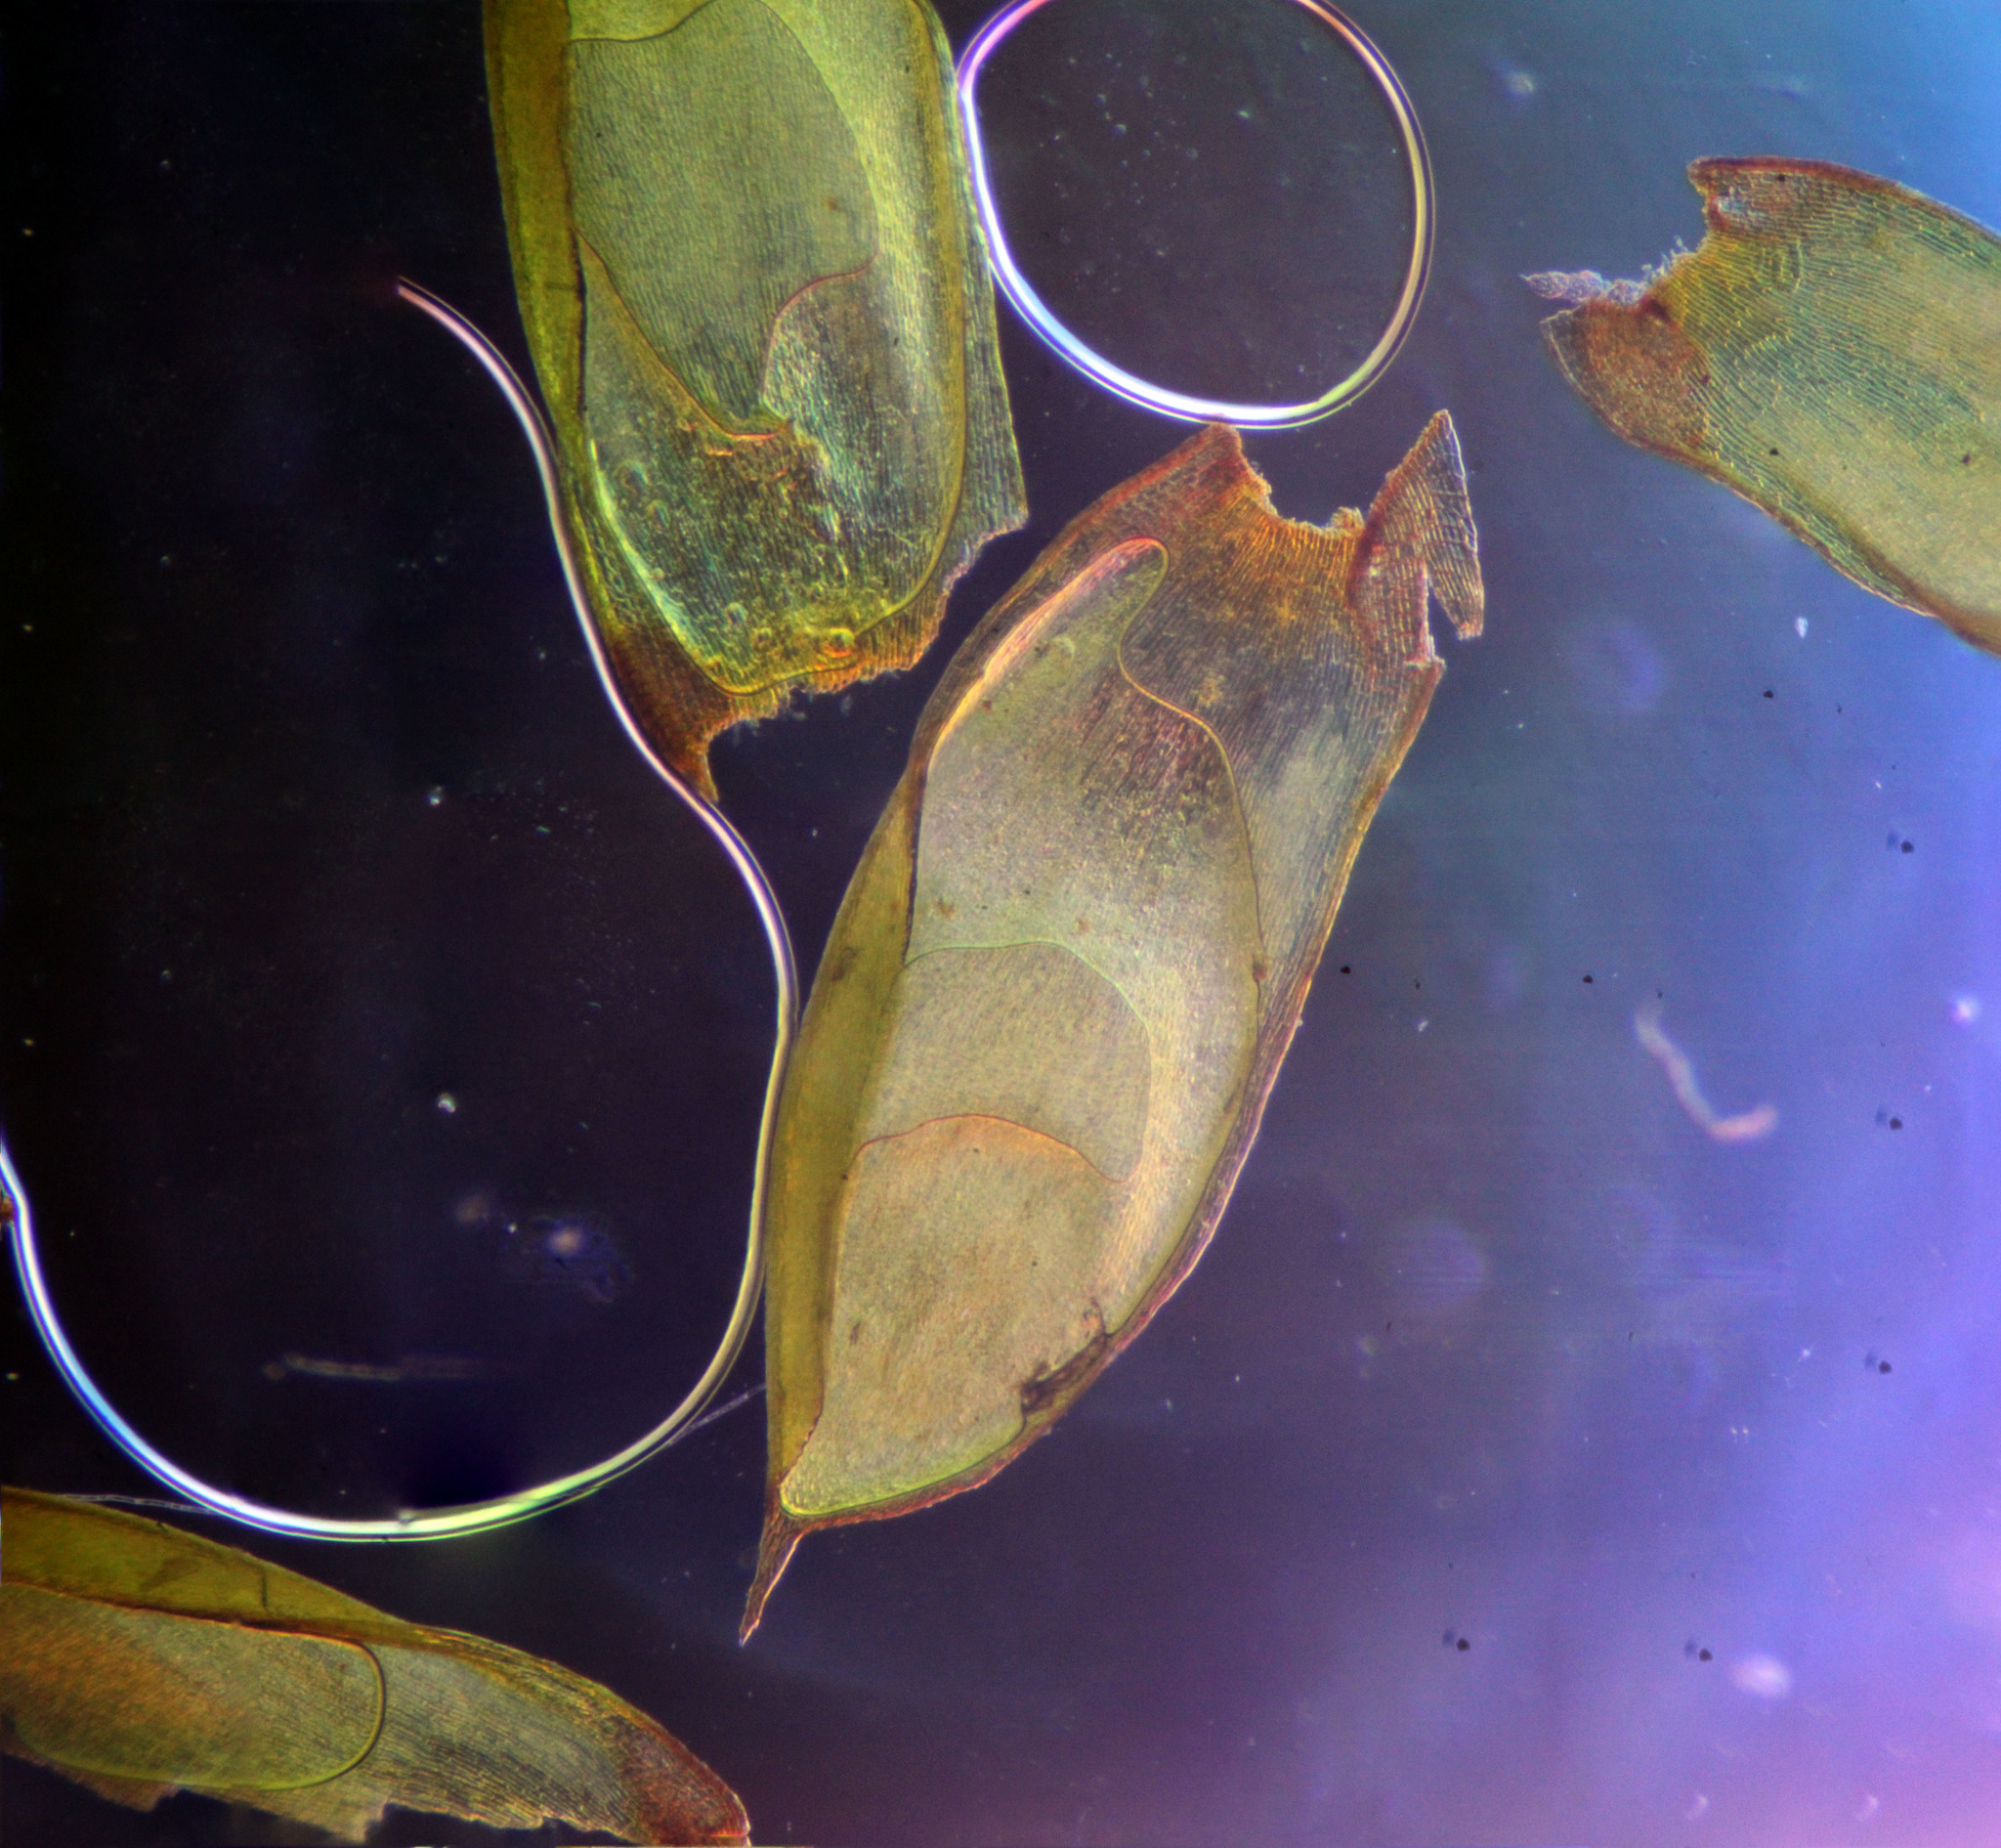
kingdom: Plantae
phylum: Bryophyta
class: Bryopsida
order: Hedwigiales
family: Hedwigiaceae
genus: Rhacocarpus
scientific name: Rhacocarpus purpurascens
